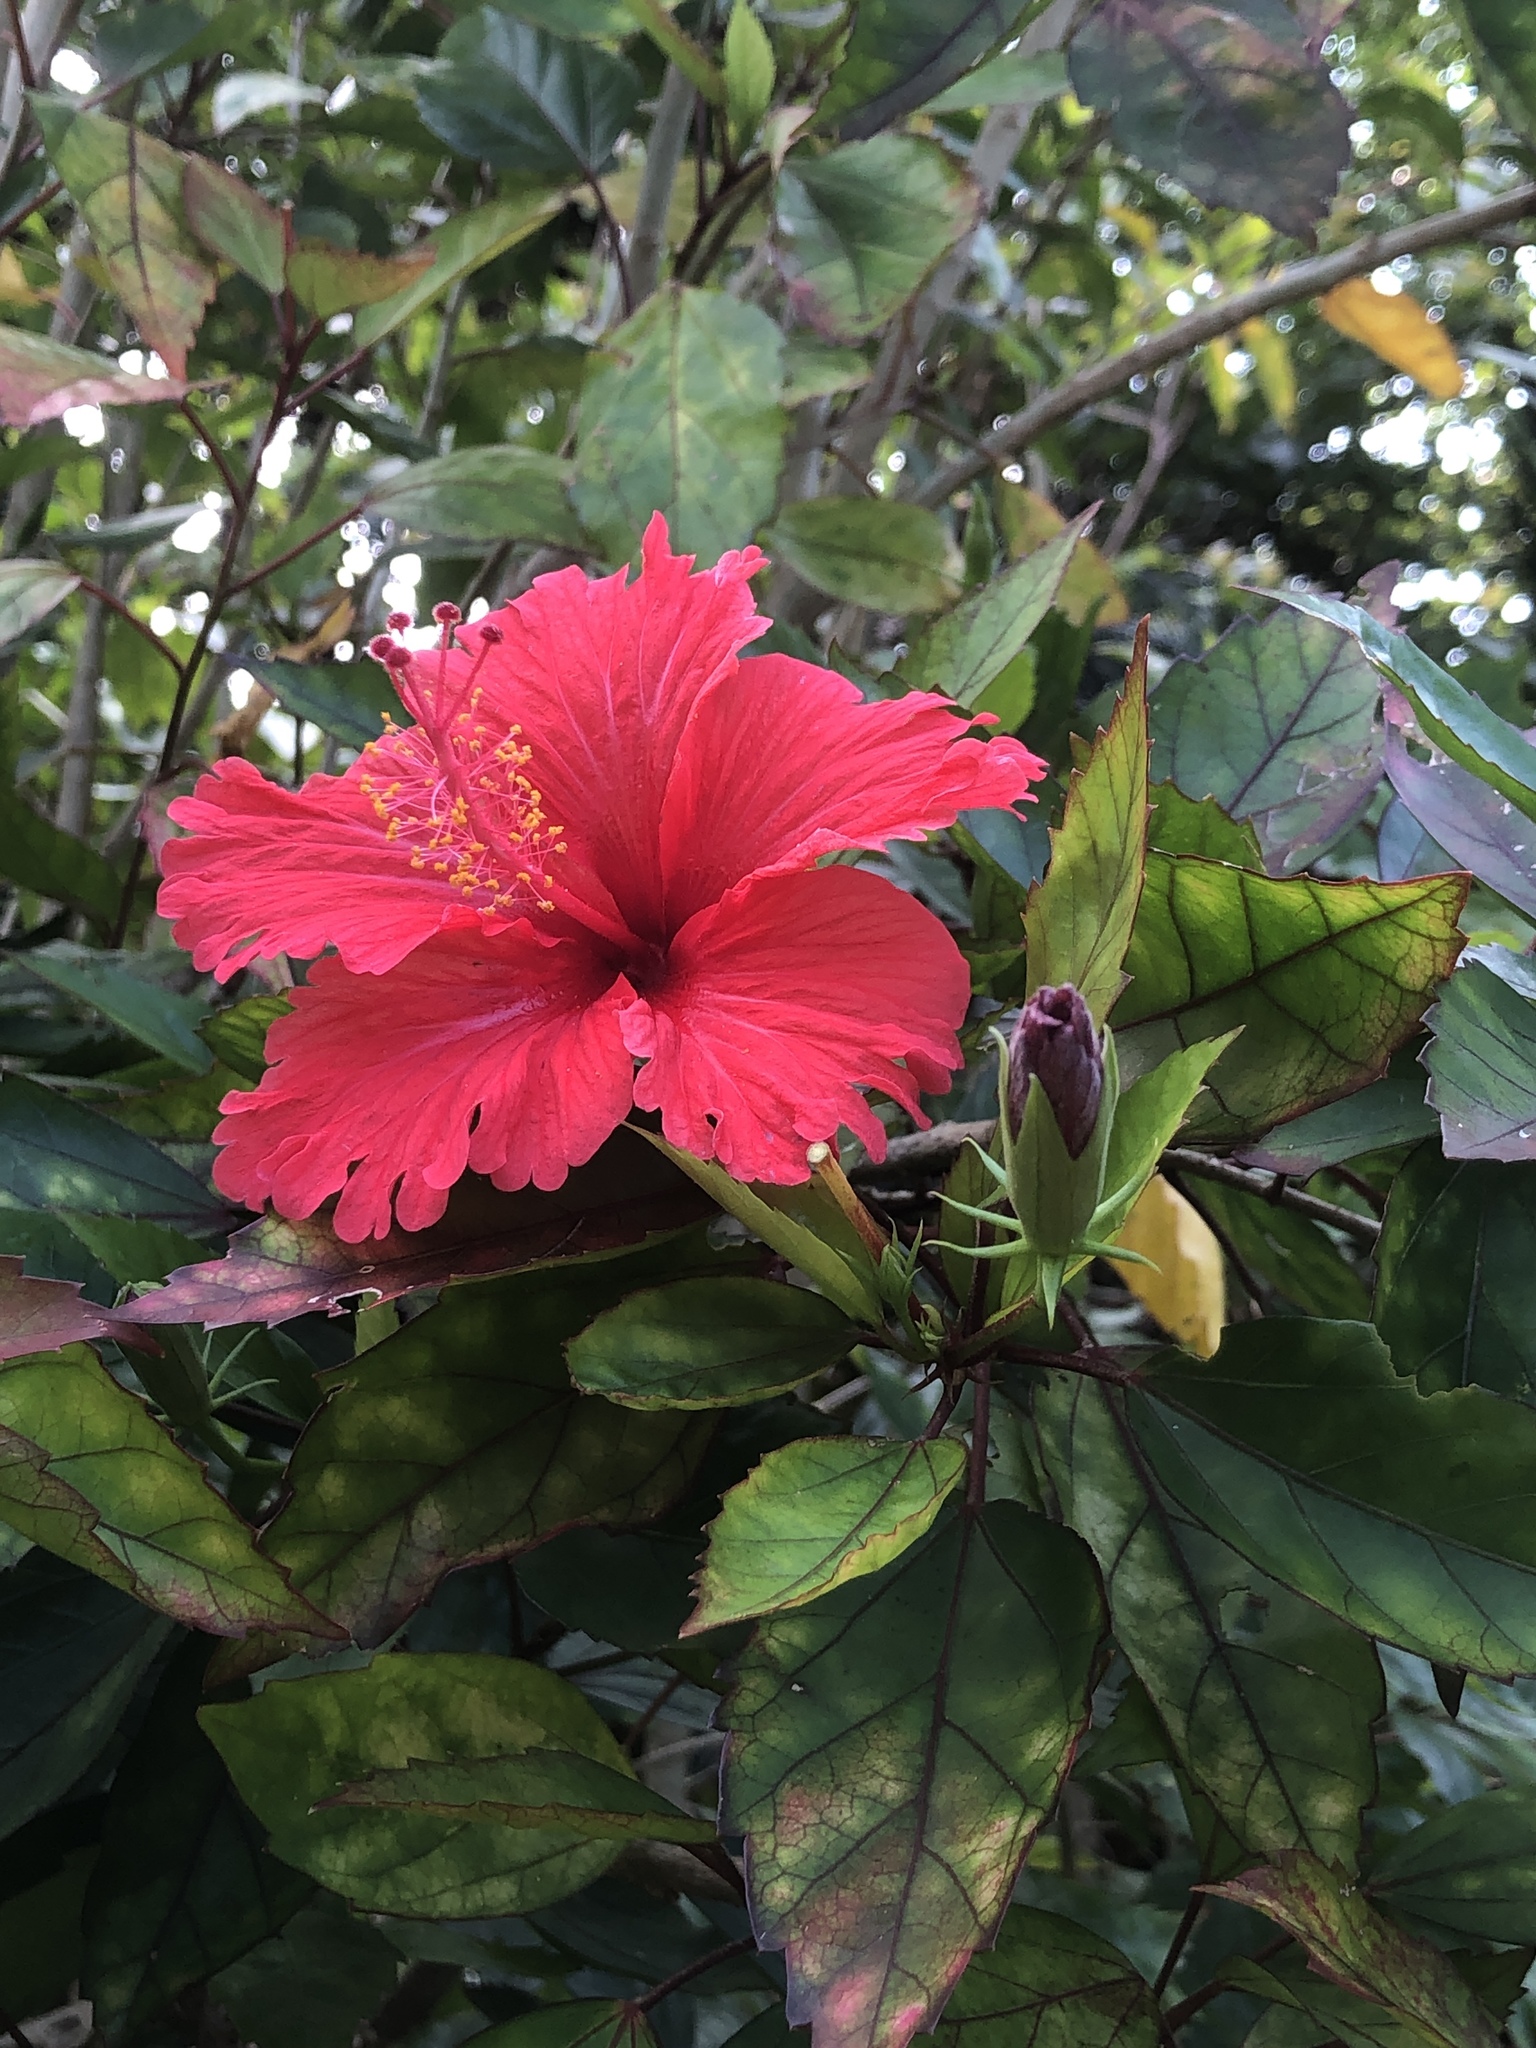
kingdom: Plantae
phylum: Tracheophyta
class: Magnoliopsida
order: Malvales
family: Malvaceae
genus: Hibiscus
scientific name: Hibiscus archeri
